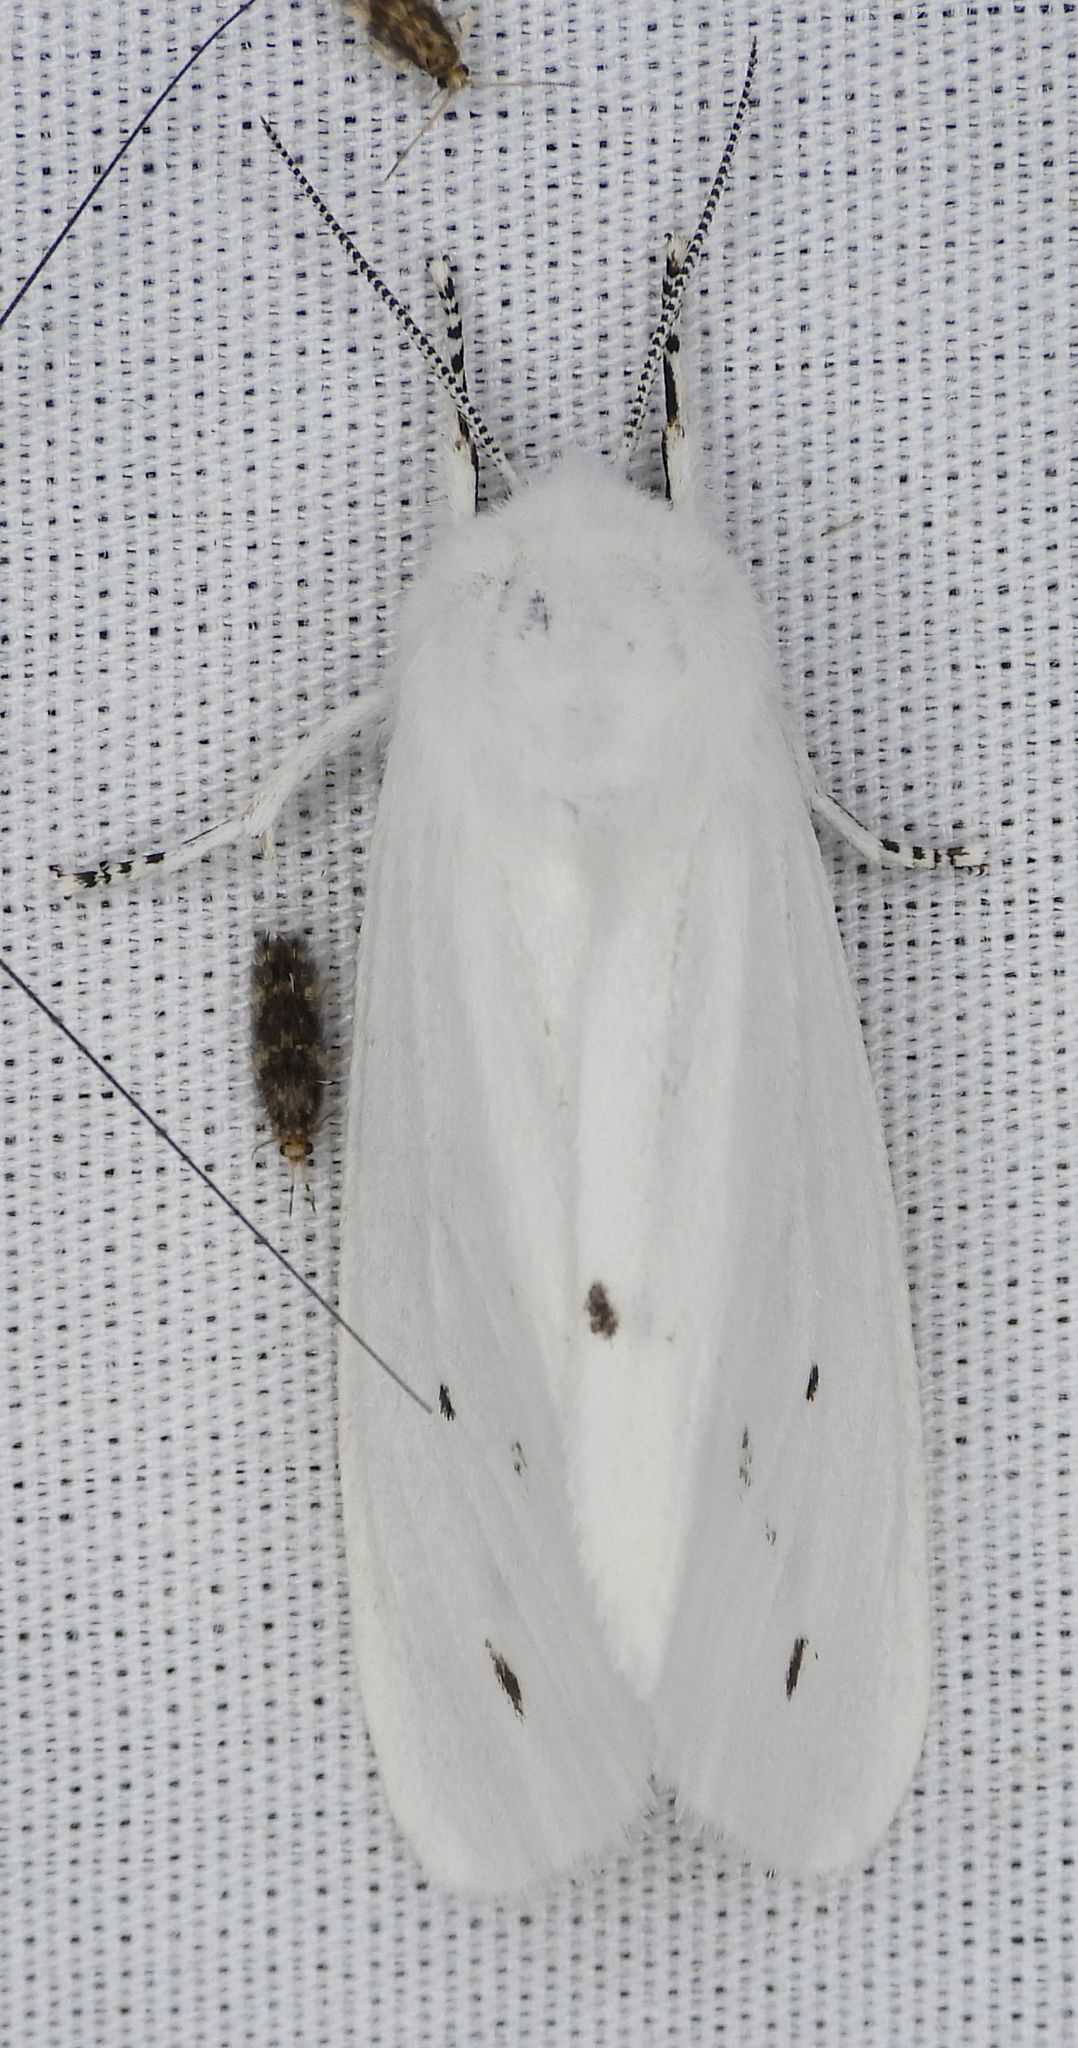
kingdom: Animalia
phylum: Arthropoda
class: Insecta
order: Lepidoptera
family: Erebidae
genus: Spilosoma
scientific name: Spilosoma virginica
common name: Virginia tiger moth
